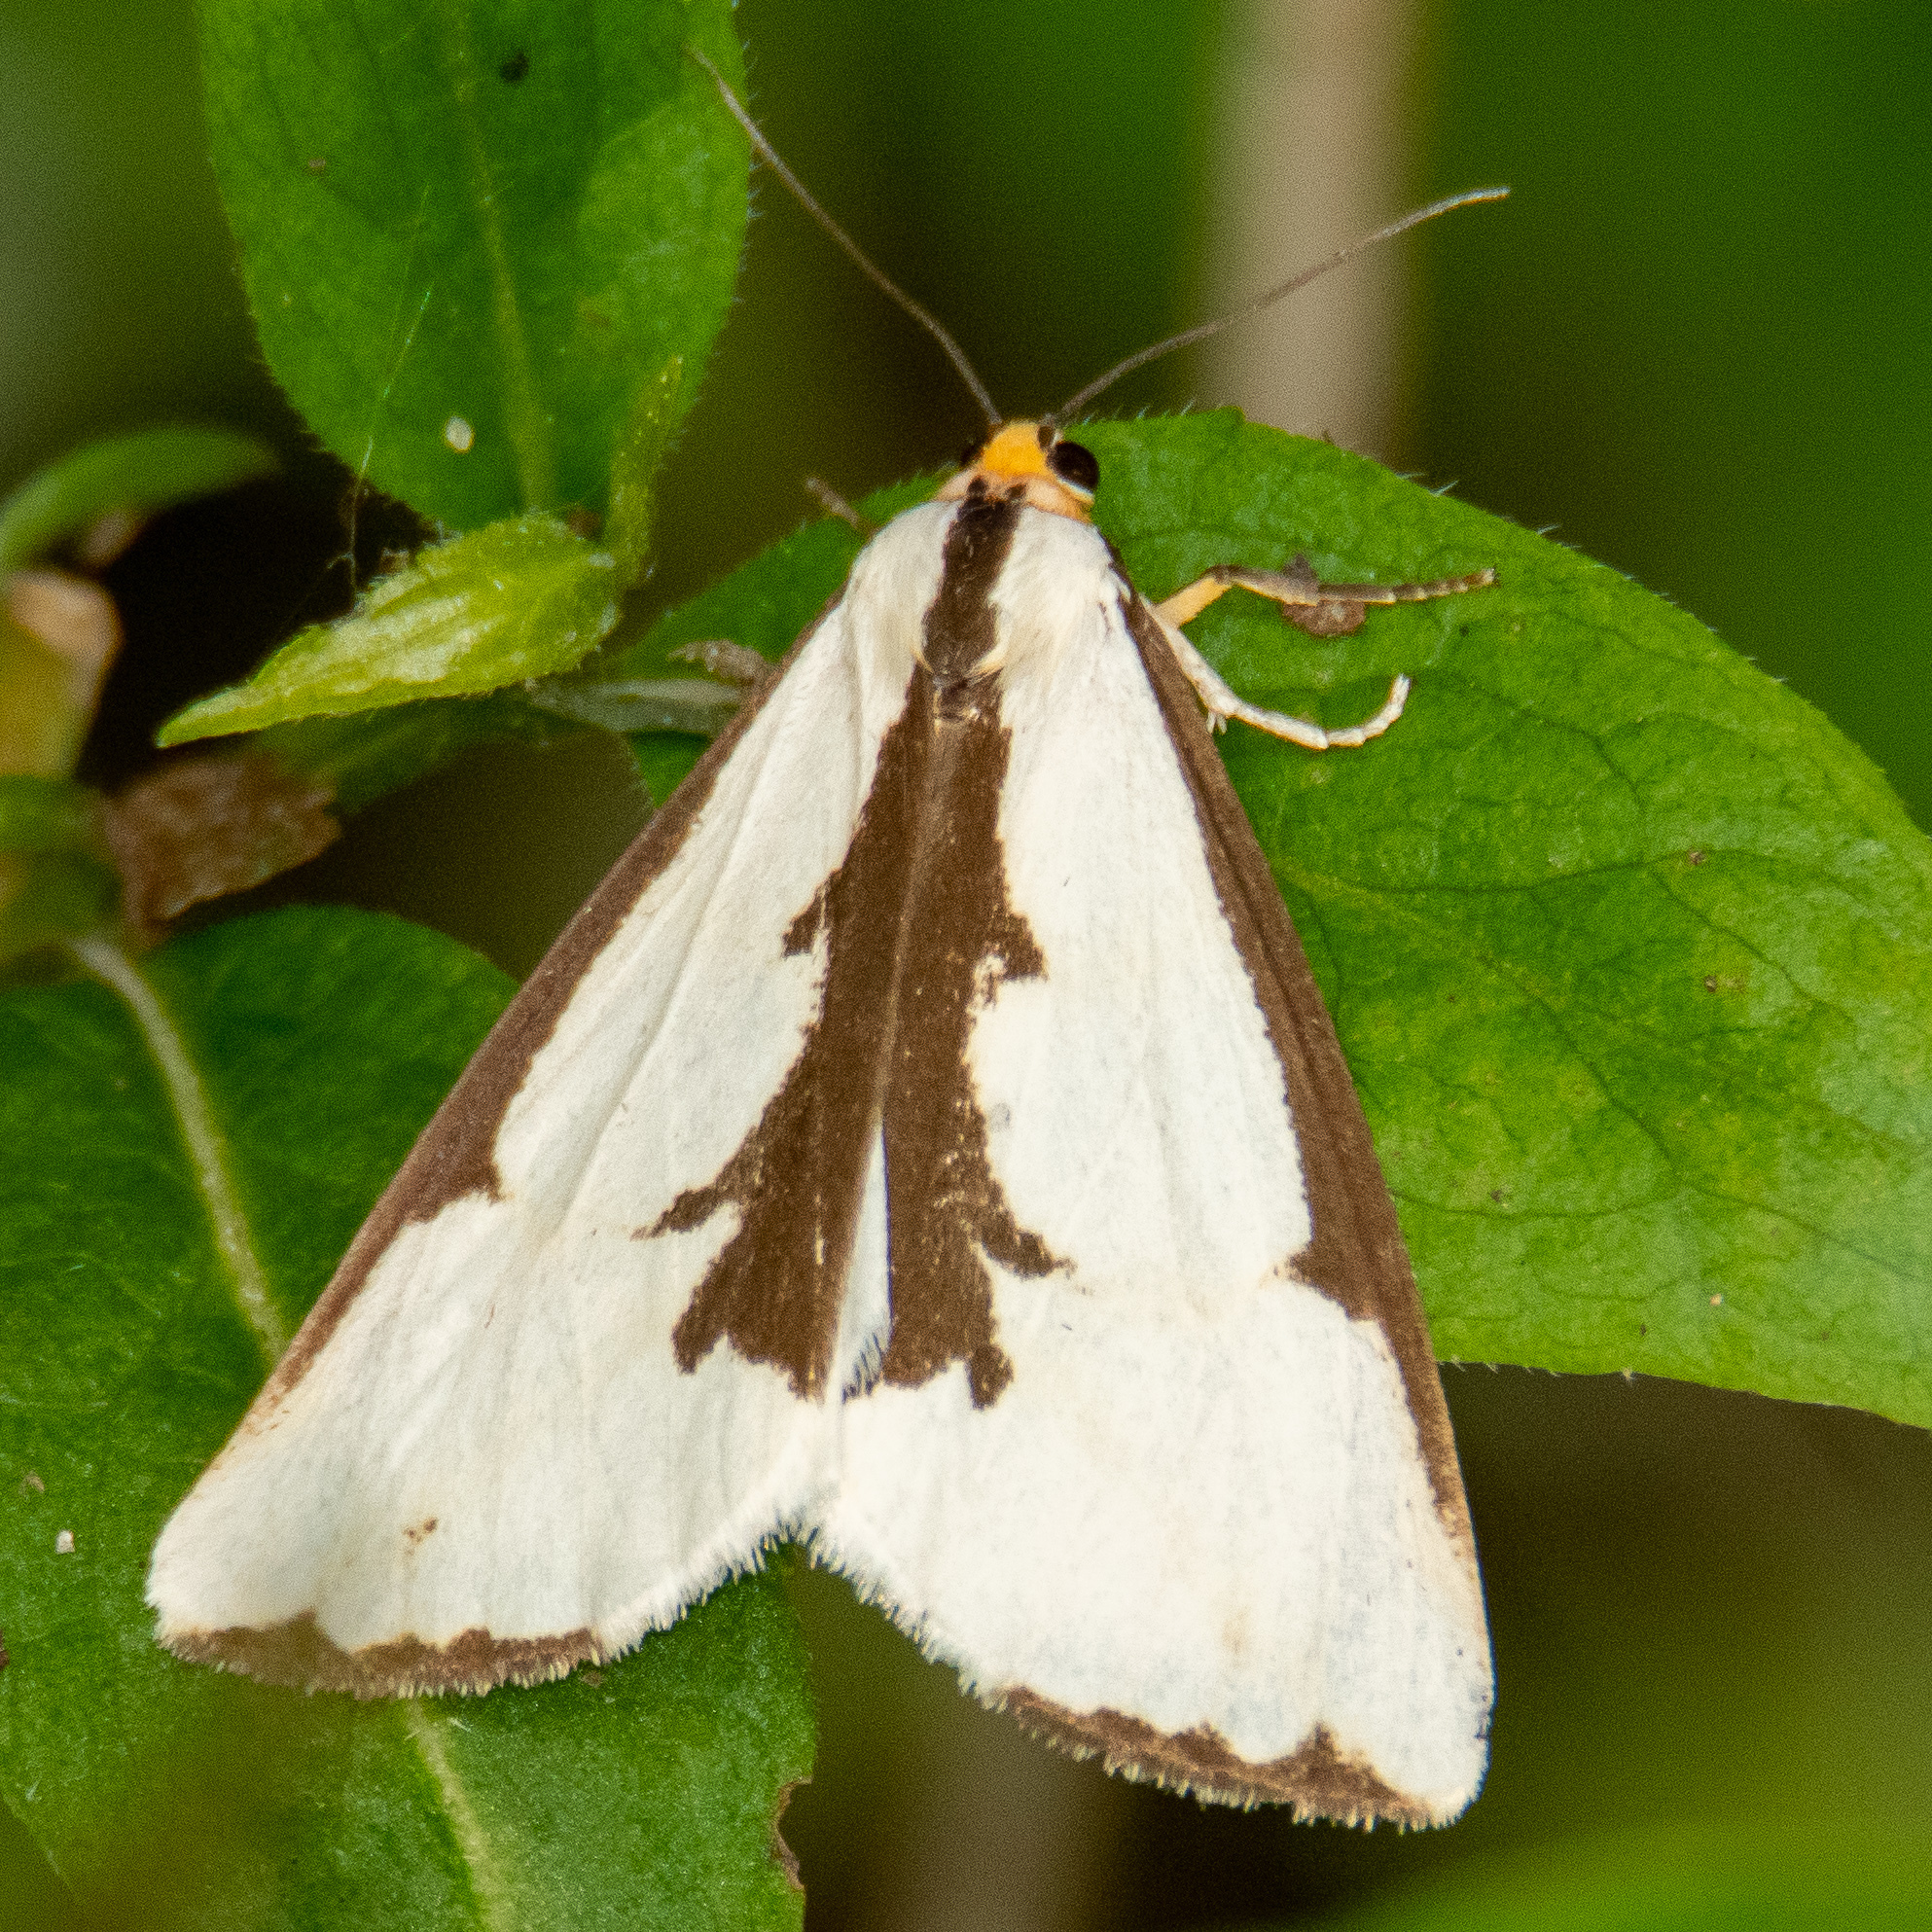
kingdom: Animalia
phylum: Arthropoda
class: Insecta
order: Lepidoptera
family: Erebidae
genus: Haploa
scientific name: Haploa lecontei
